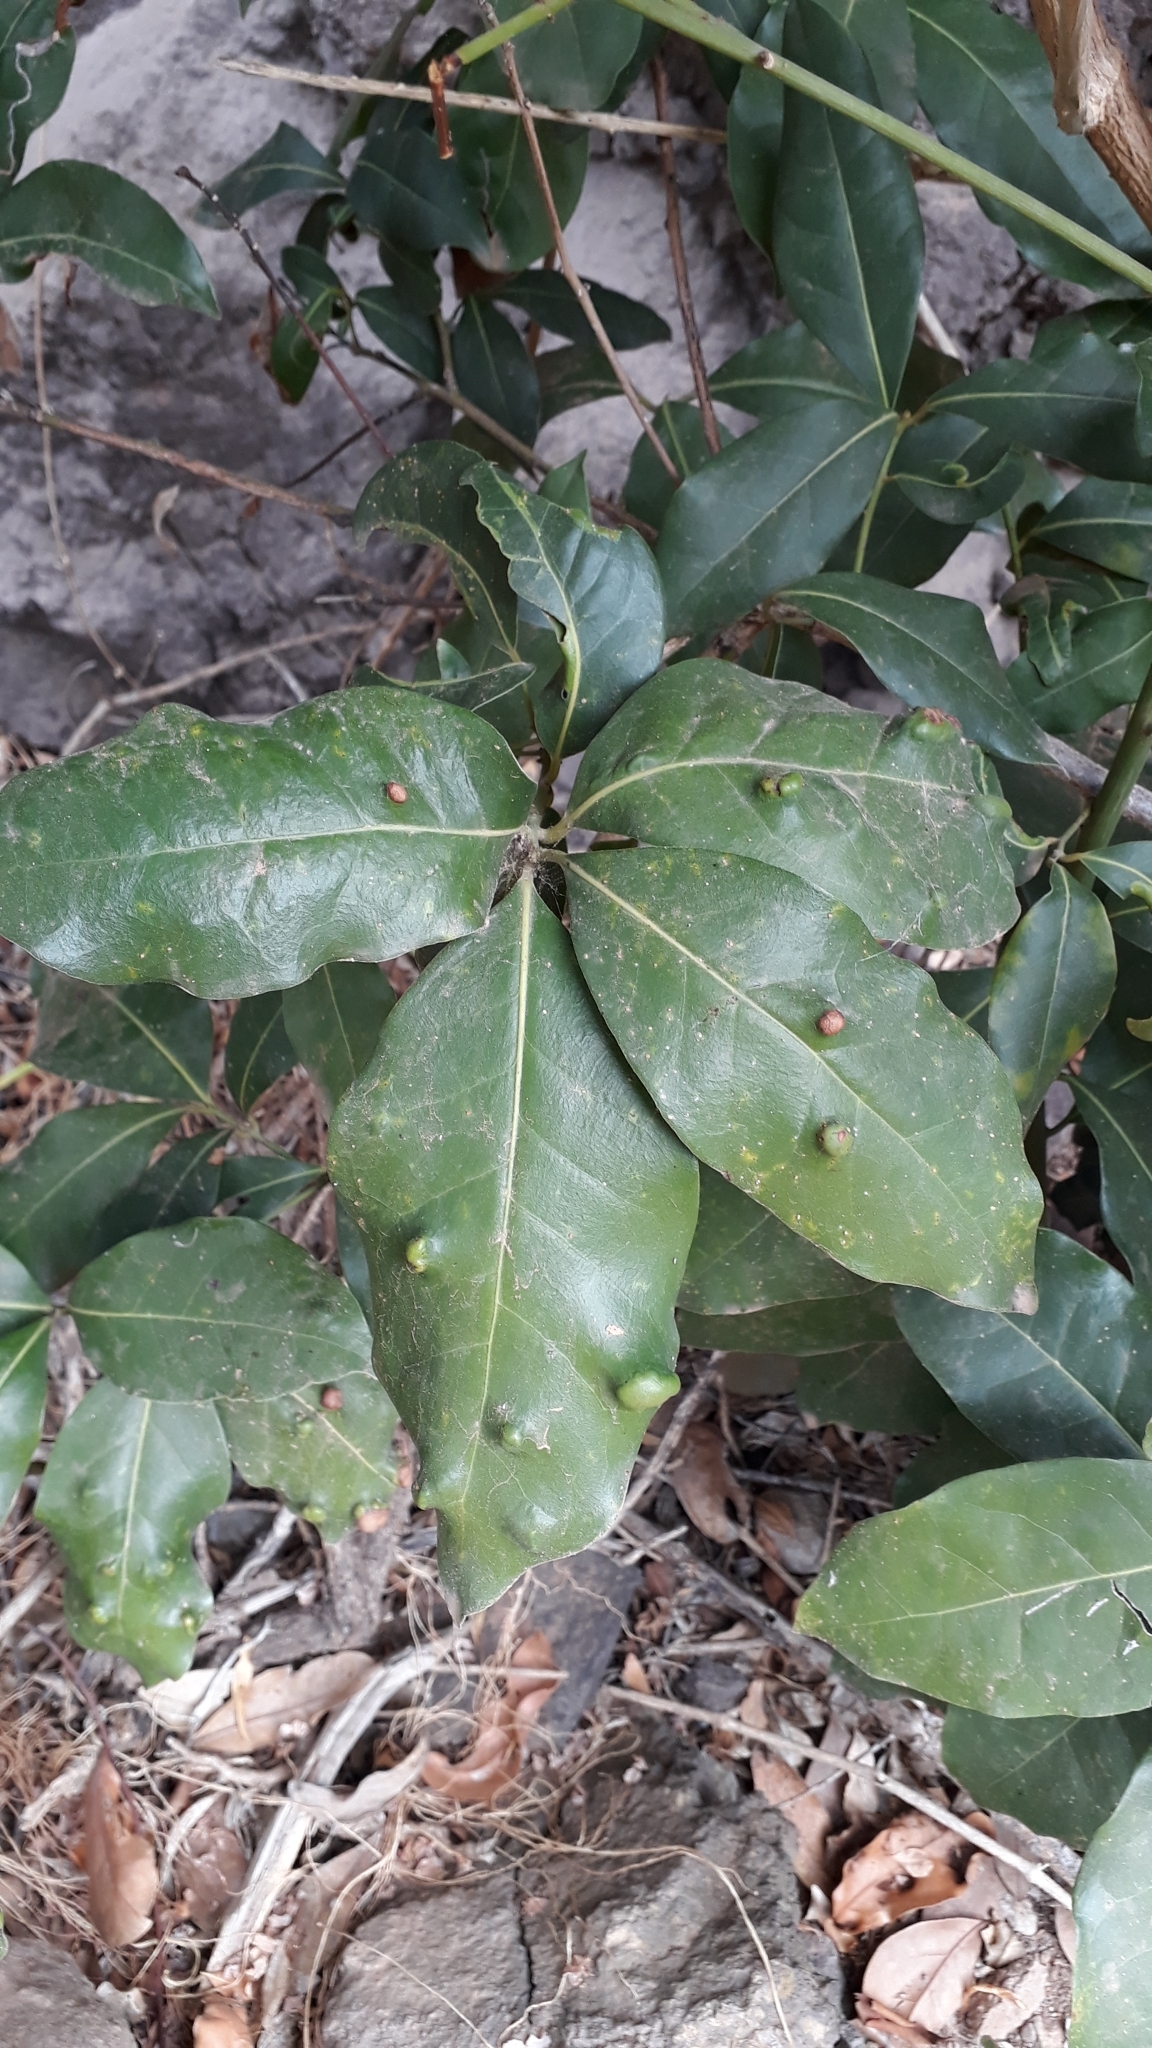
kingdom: Plantae
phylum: Tracheophyta
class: Magnoliopsida
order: Laurales
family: Lauraceae
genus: Apollonias
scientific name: Apollonias barbujana
